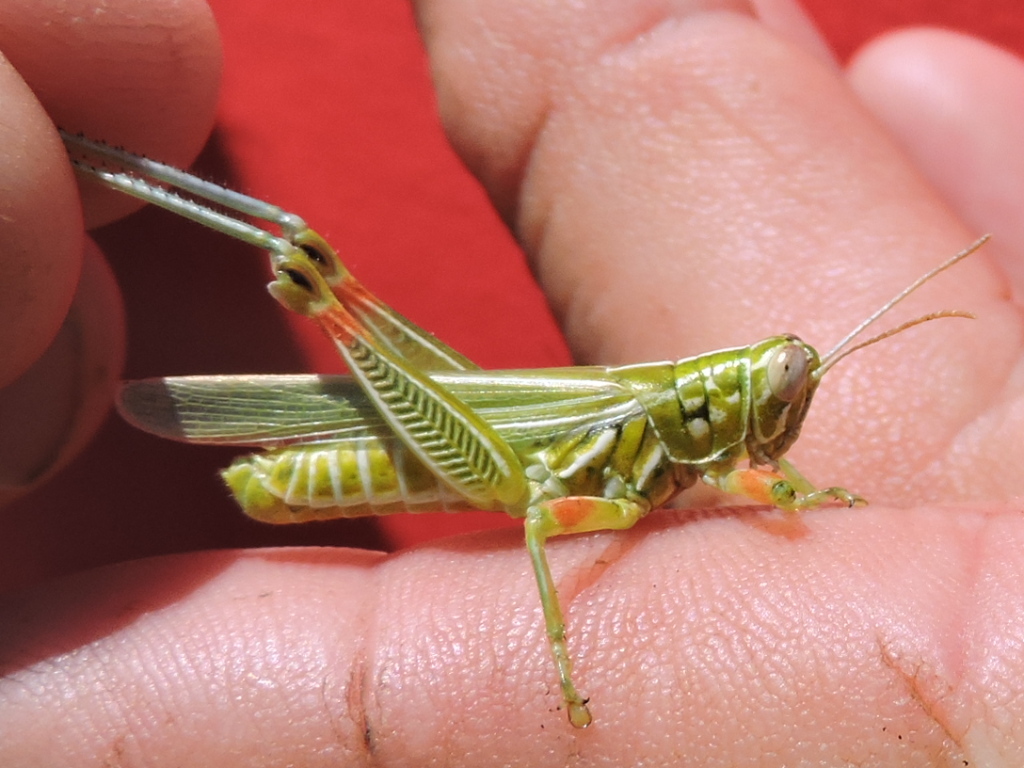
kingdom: Animalia
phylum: Arthropoda
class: Insecta
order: Orthoptera
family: Acrididae
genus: Hesperotettix
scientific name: Hesperotettix viridis
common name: Meadow purple-striped grasshopper
